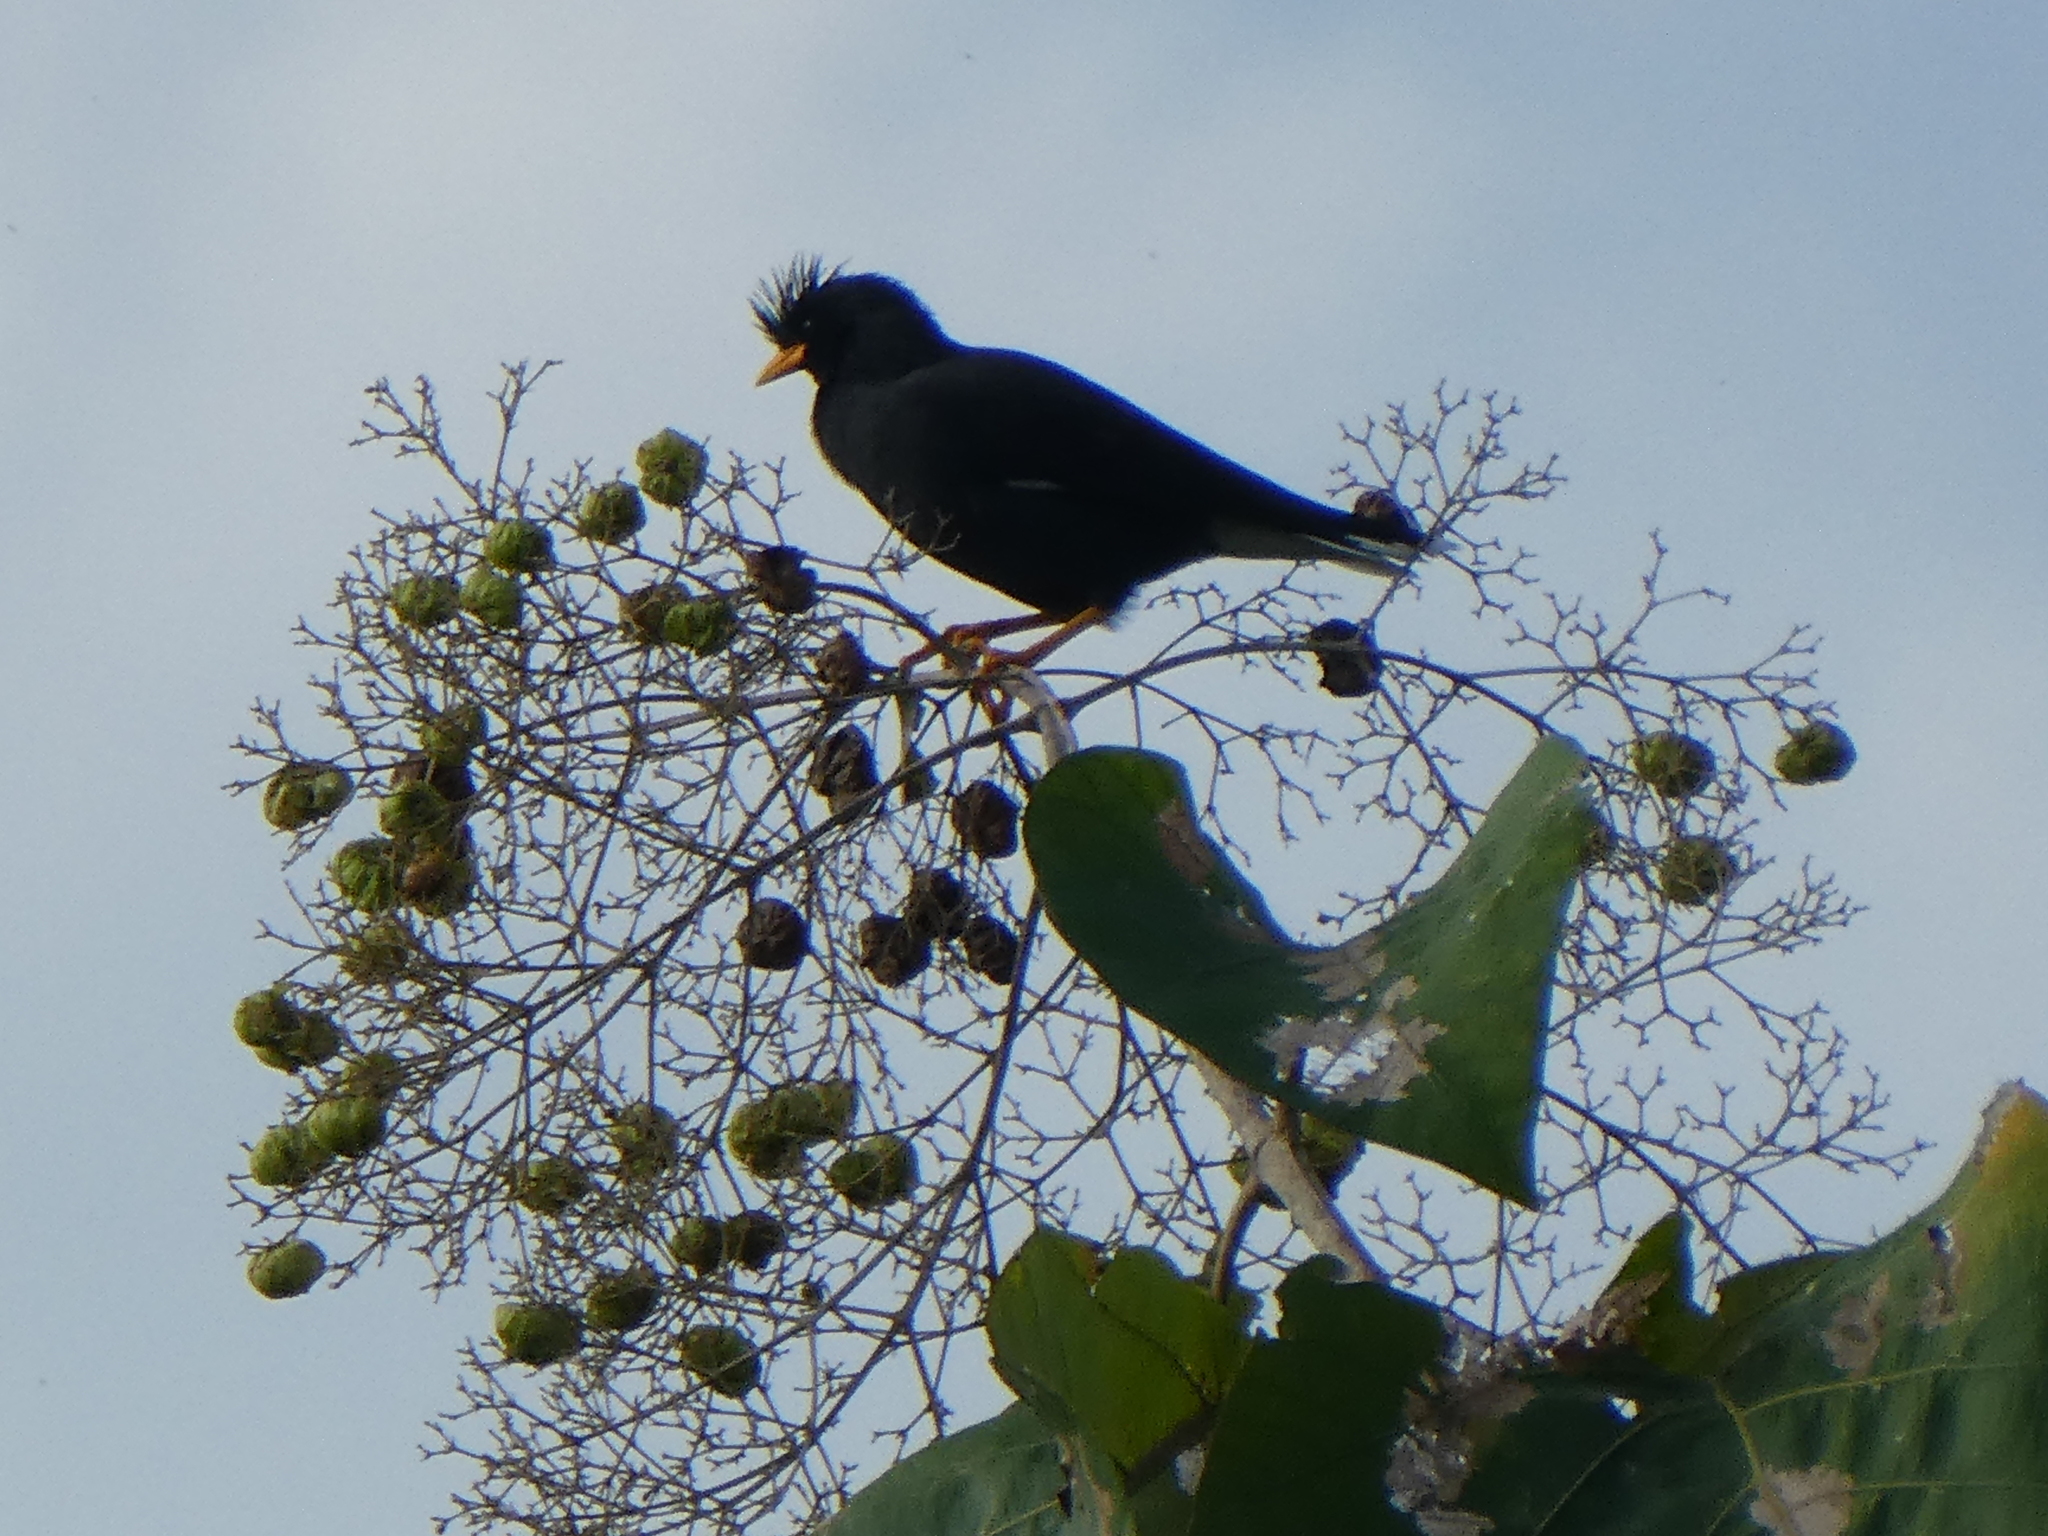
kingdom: Animalia
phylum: Chordata
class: Aves
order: Passeriformes
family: Sturnidae
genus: Acridotheres
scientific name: Acridotheres grandis
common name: Great myna
